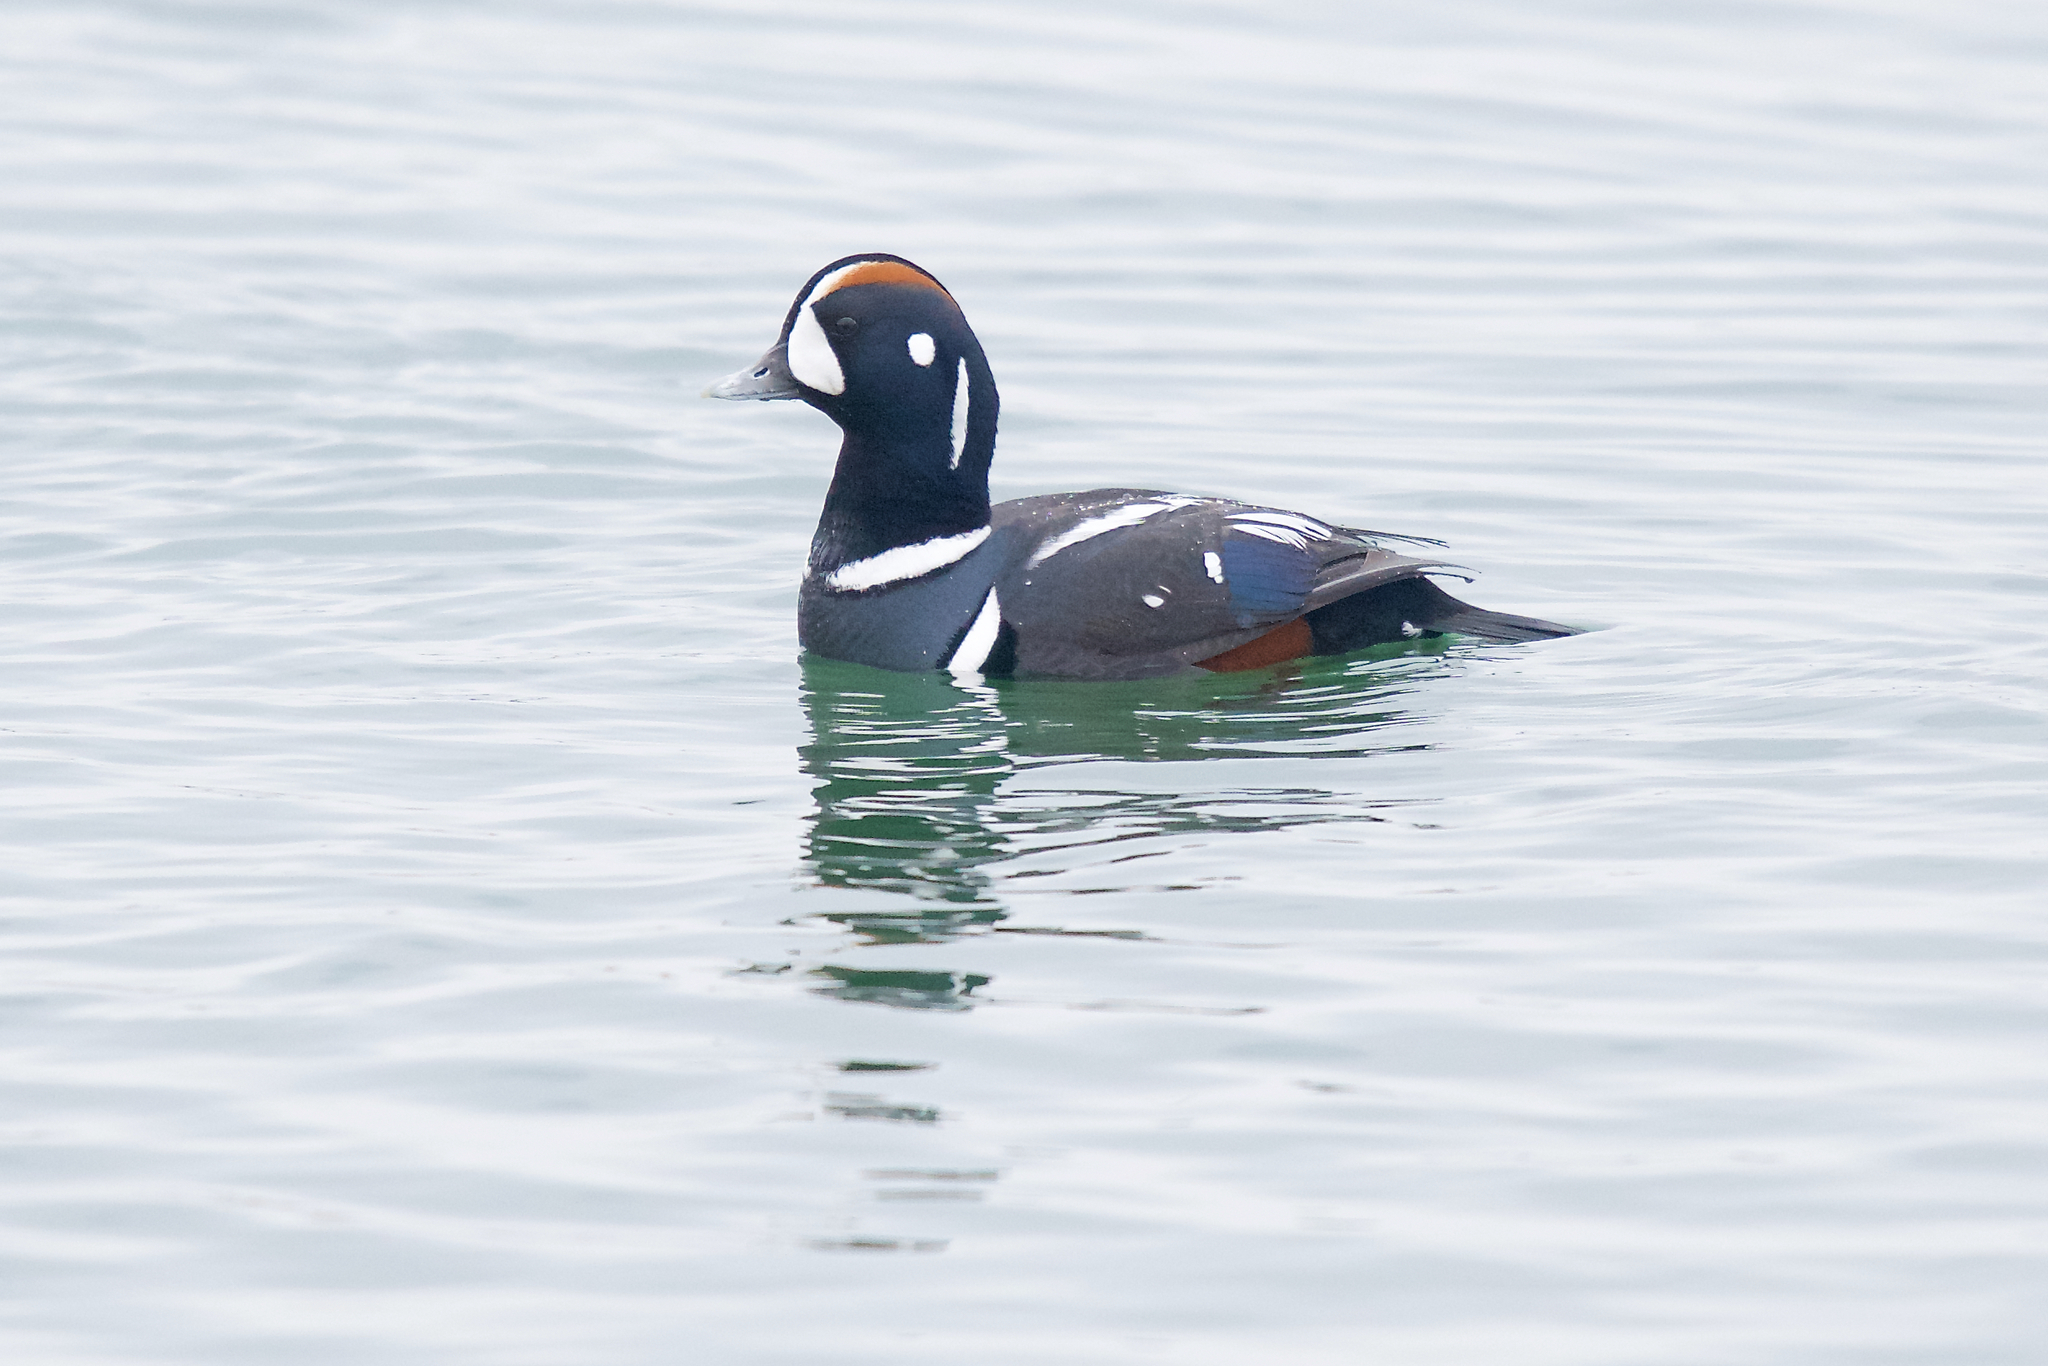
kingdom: Animalia
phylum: Chordata
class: Aves
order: Anseriformes
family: Anatidae
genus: Histrionicus
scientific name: Histrionicus histrionicus
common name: Harlequin duck
